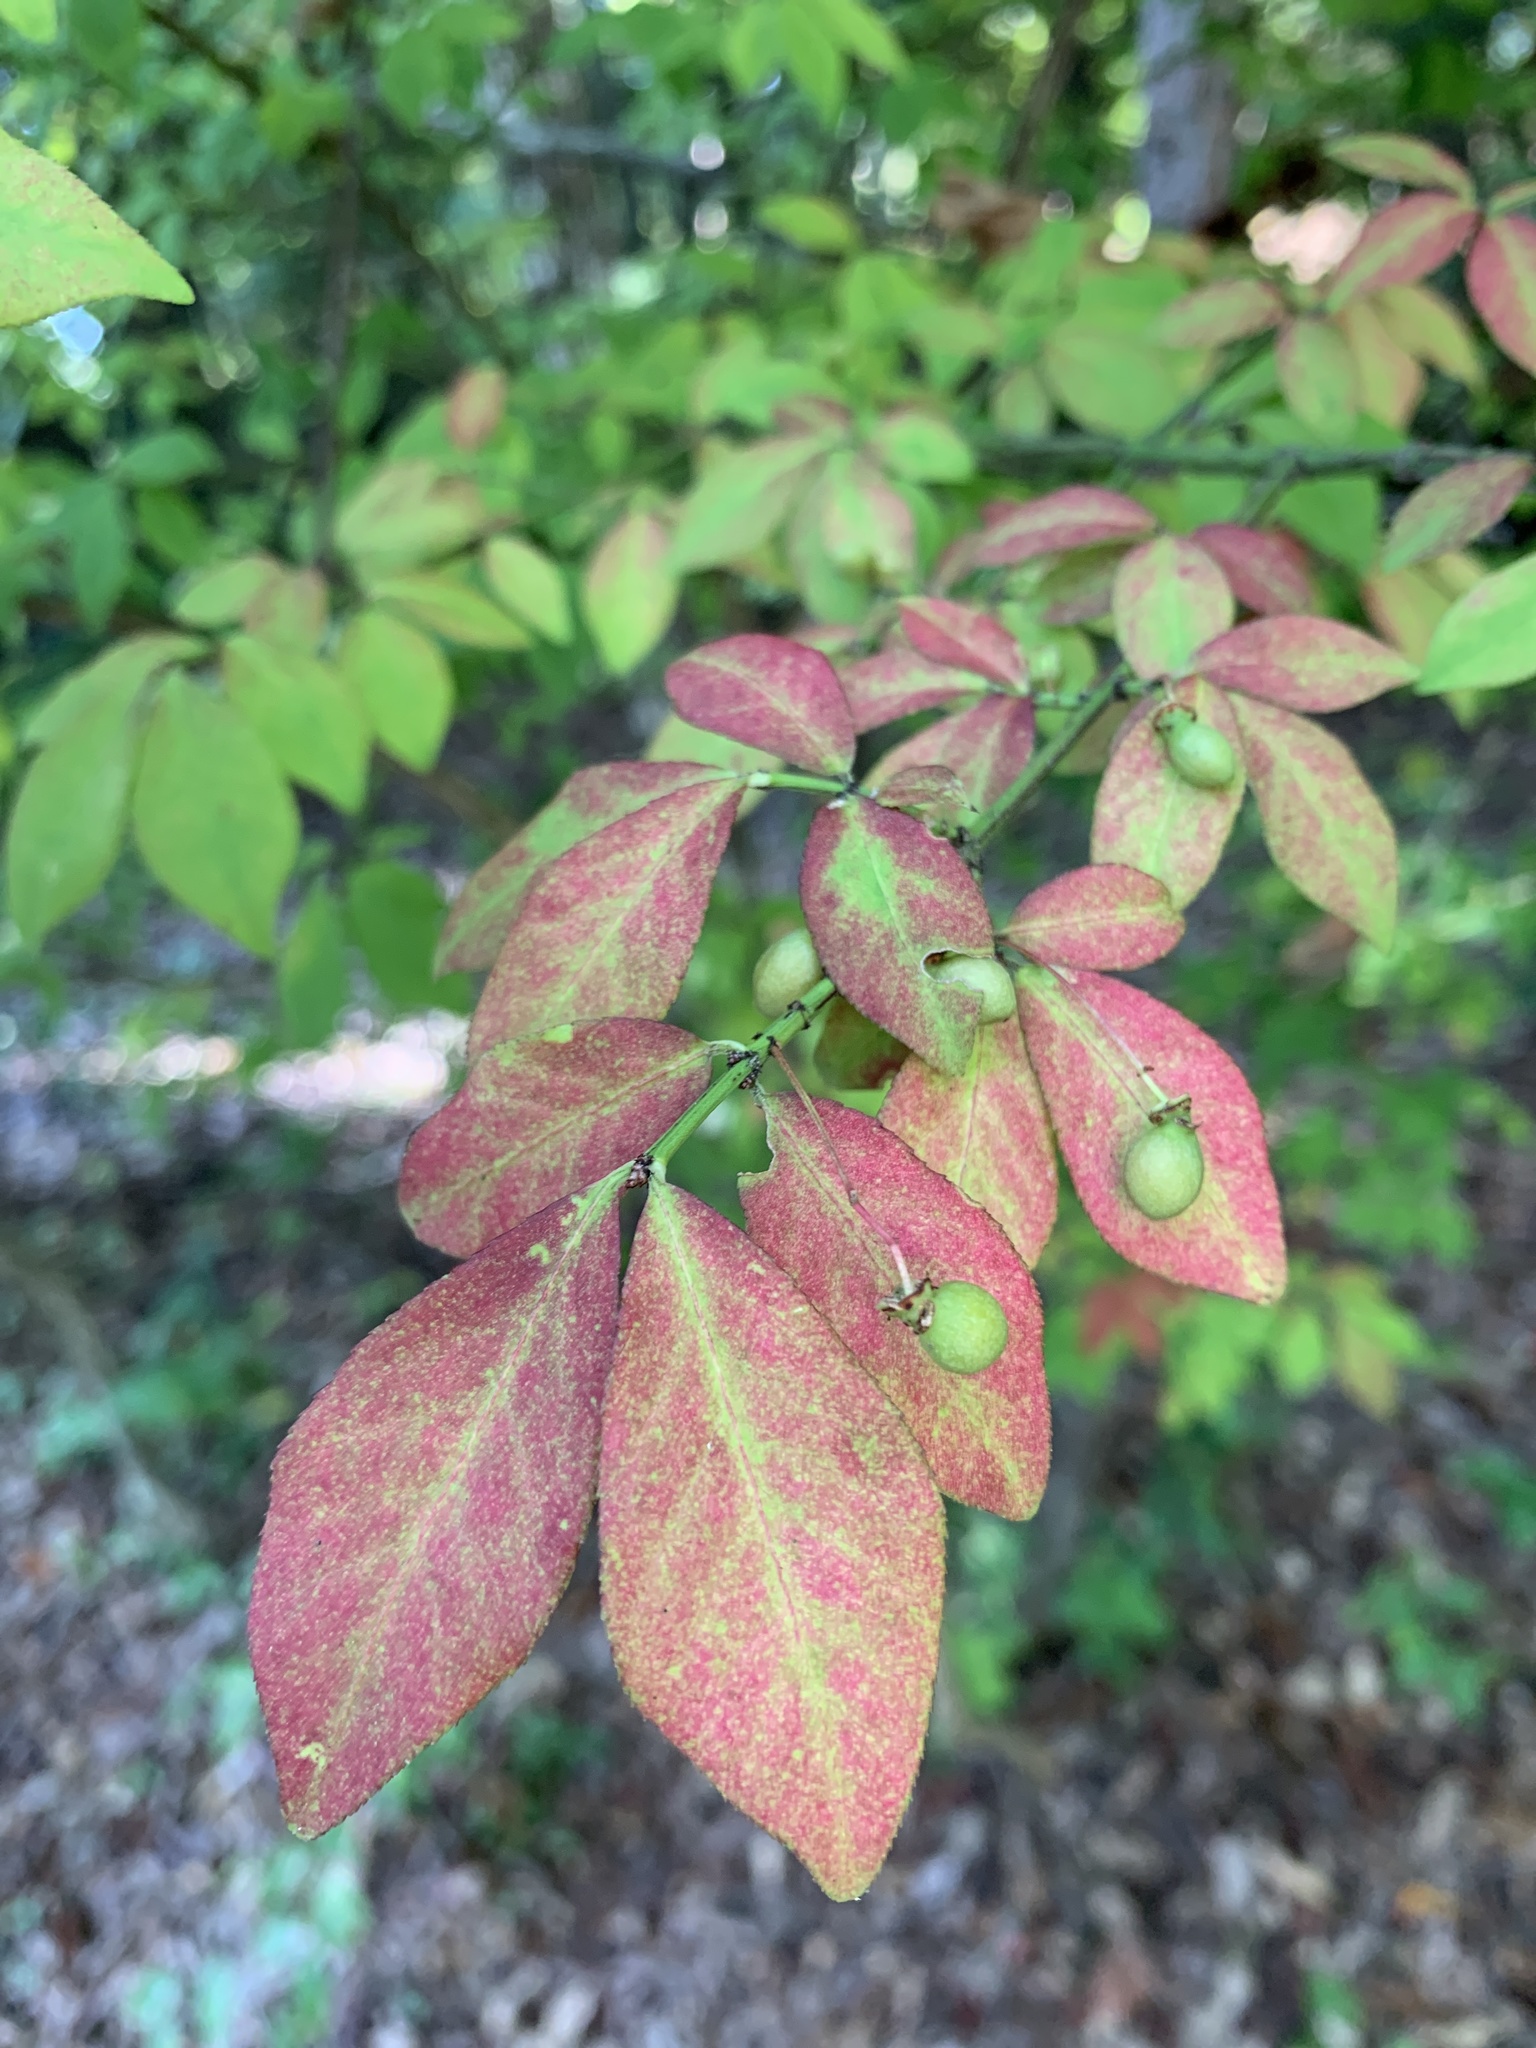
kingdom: Plantae
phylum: Tracheophyta
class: Magnoliopsida
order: Celastrales
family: Celastraceae
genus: Euonymus
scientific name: Euonymus alatus
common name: Winged euonymus
